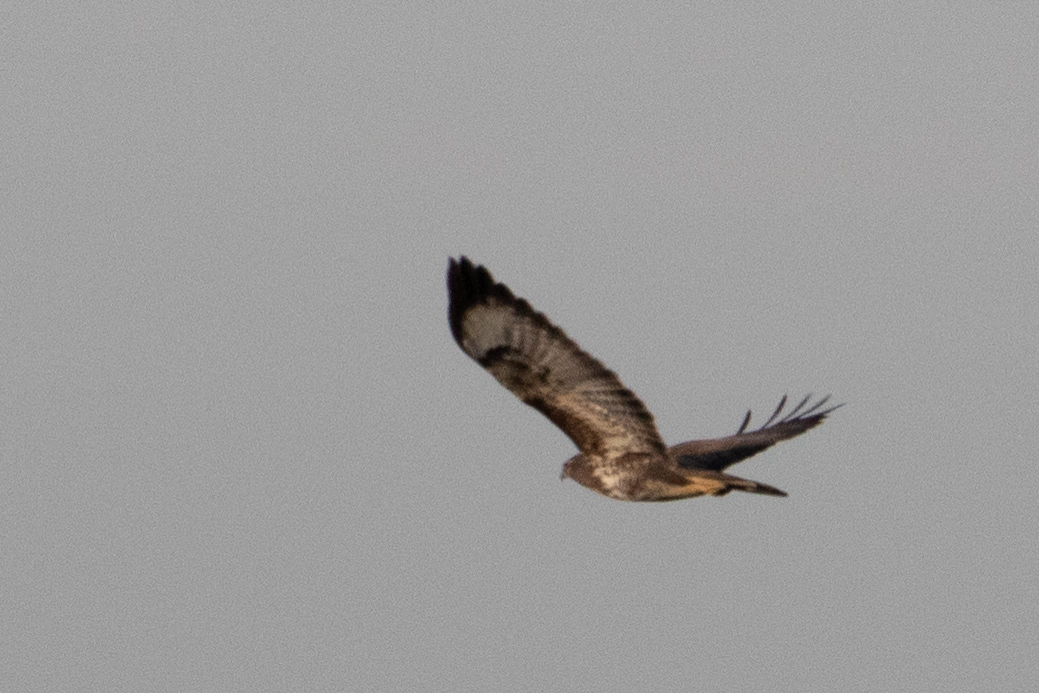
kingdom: Animalia
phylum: Chordata
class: Aves
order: Accipitriformes
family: Accipitridae
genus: Buteo
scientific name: Buteo buteo
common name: Common buzzard
